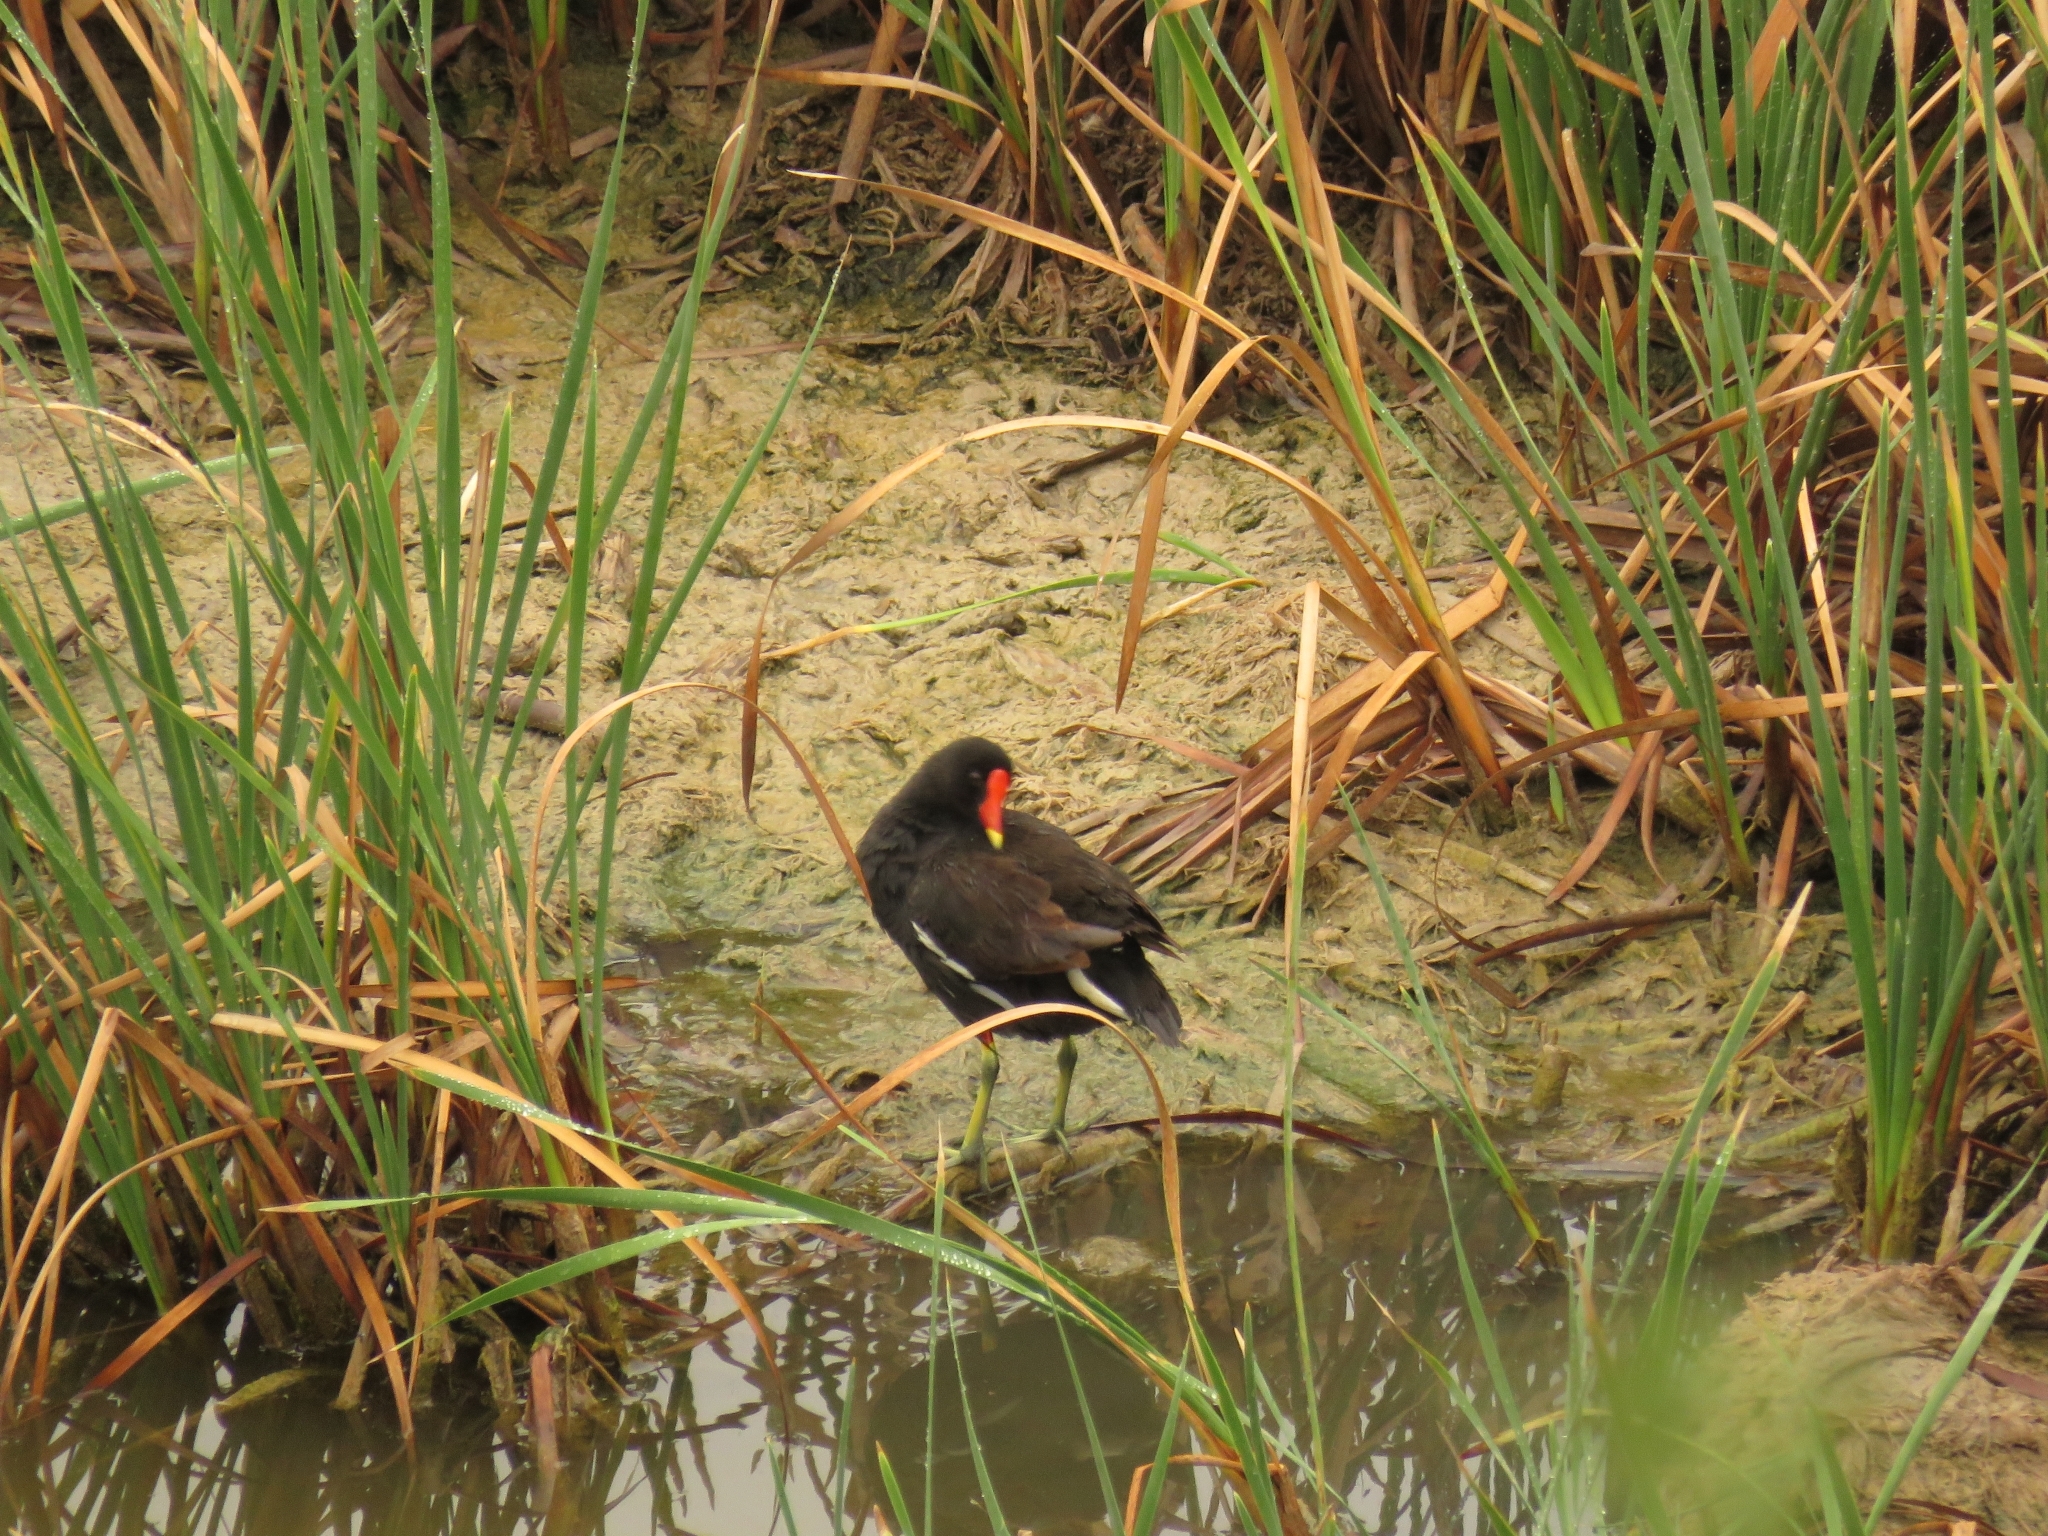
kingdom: Animalia
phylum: Chordata
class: Aves
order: Gruiformes
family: Rallidae
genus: Gallinula
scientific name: Gallinula chloropus
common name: Common moorhen
